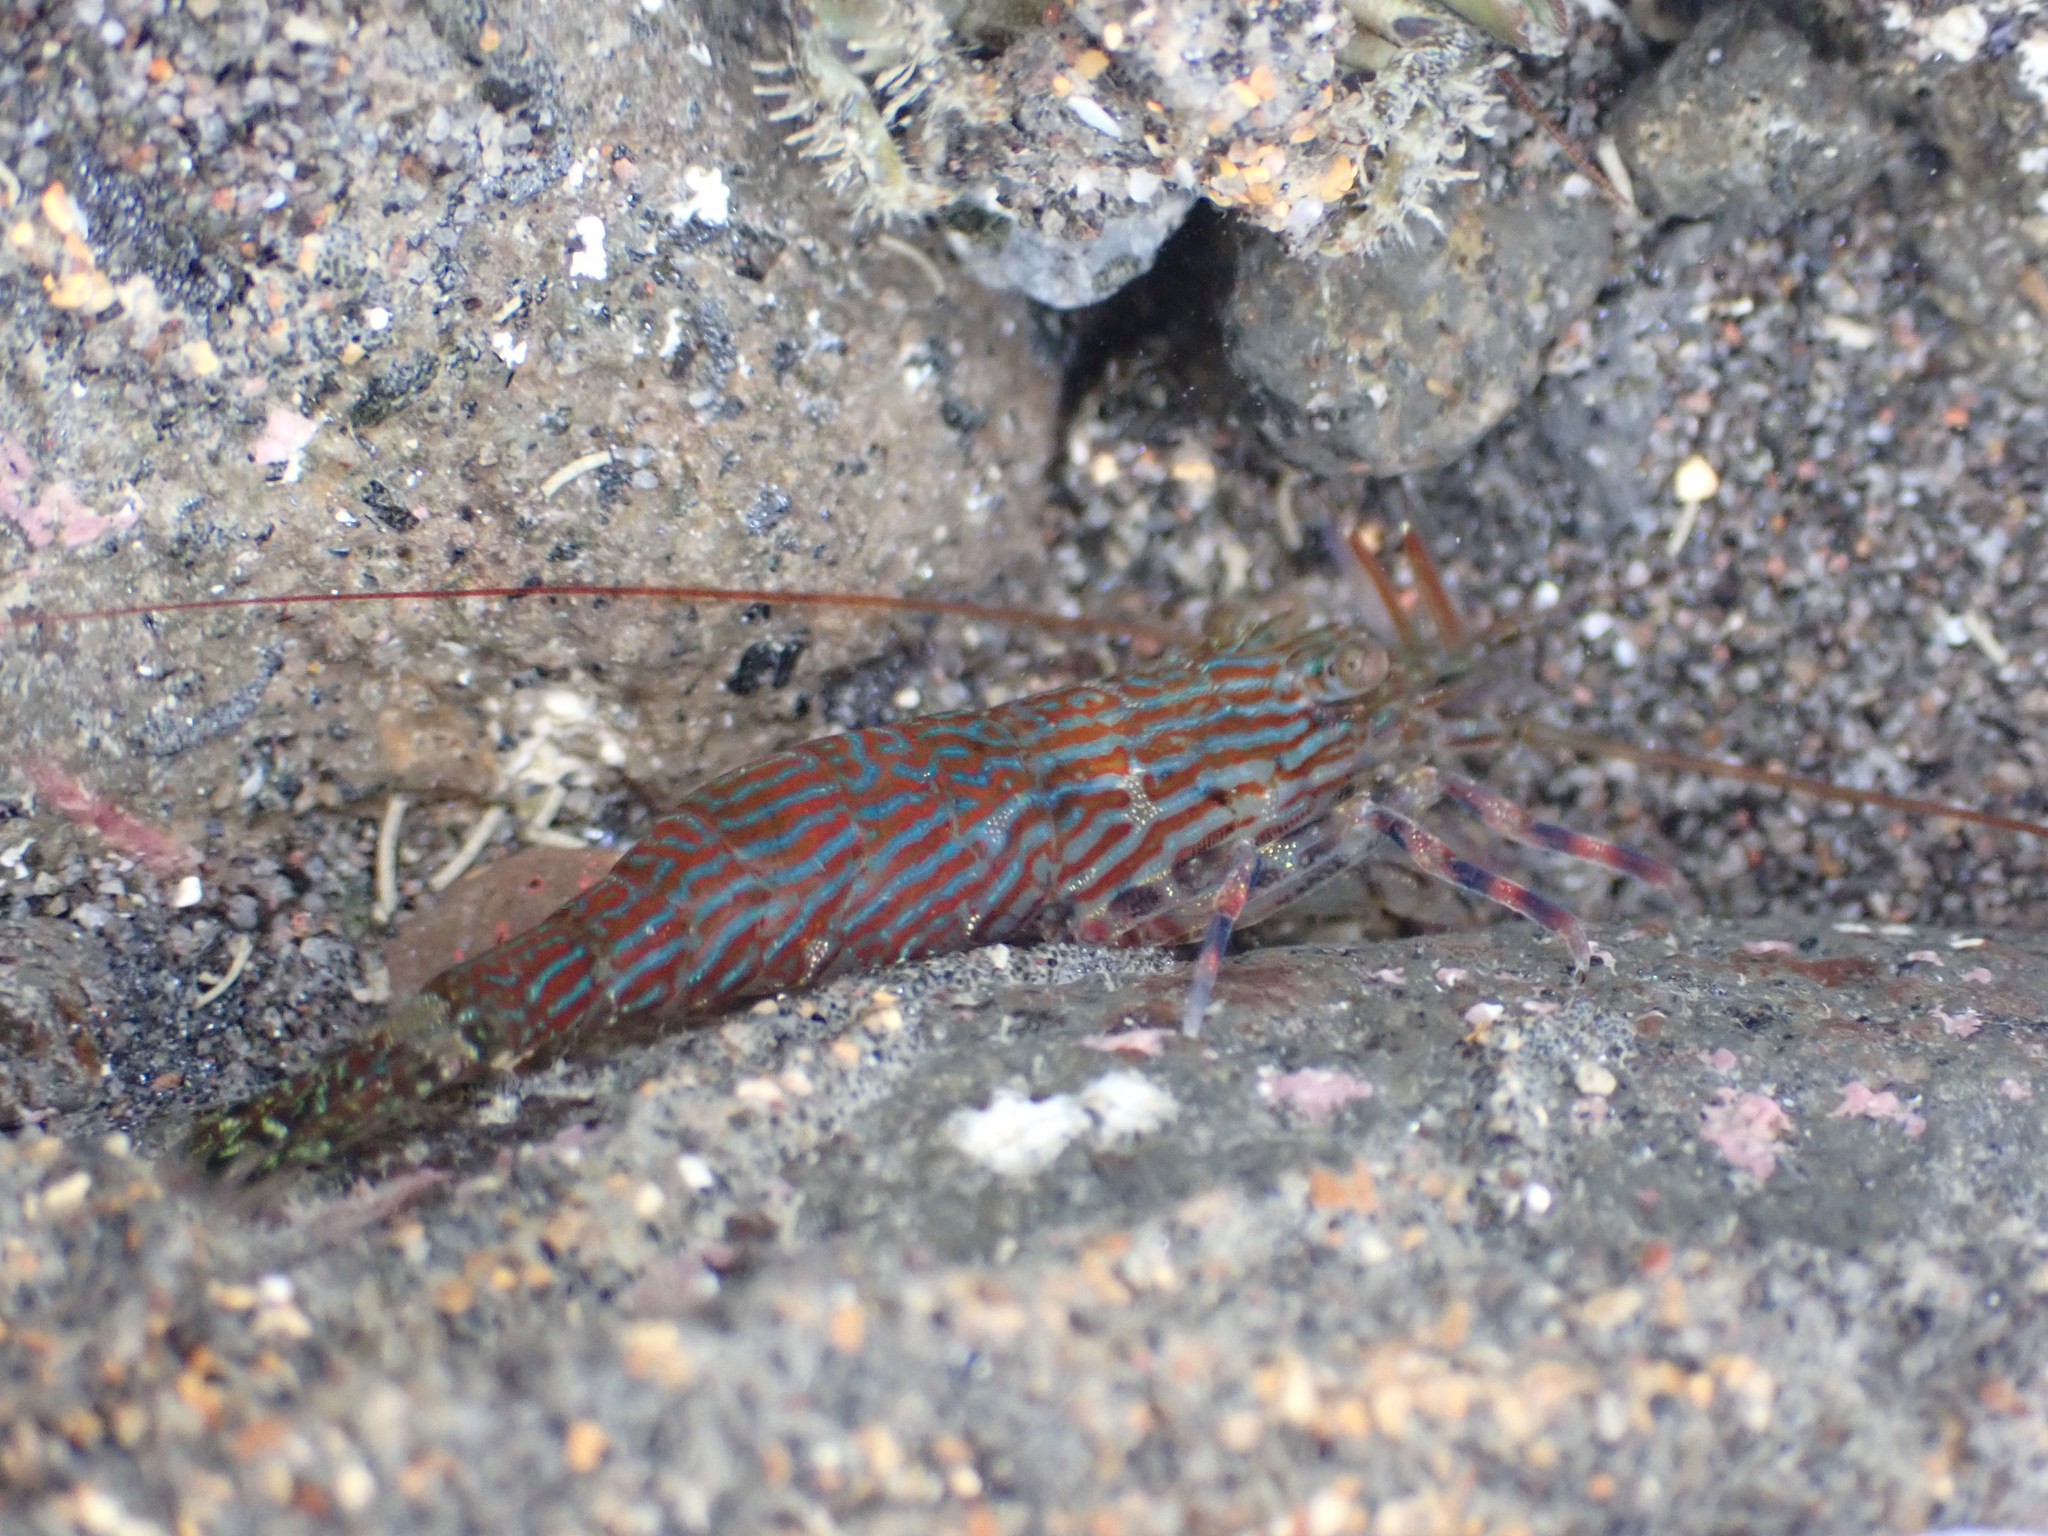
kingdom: Animalia
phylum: Arthropoda
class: Malacostraca
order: Decapoda
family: Hippolytidae
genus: Alope
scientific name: Alope spinifrons
